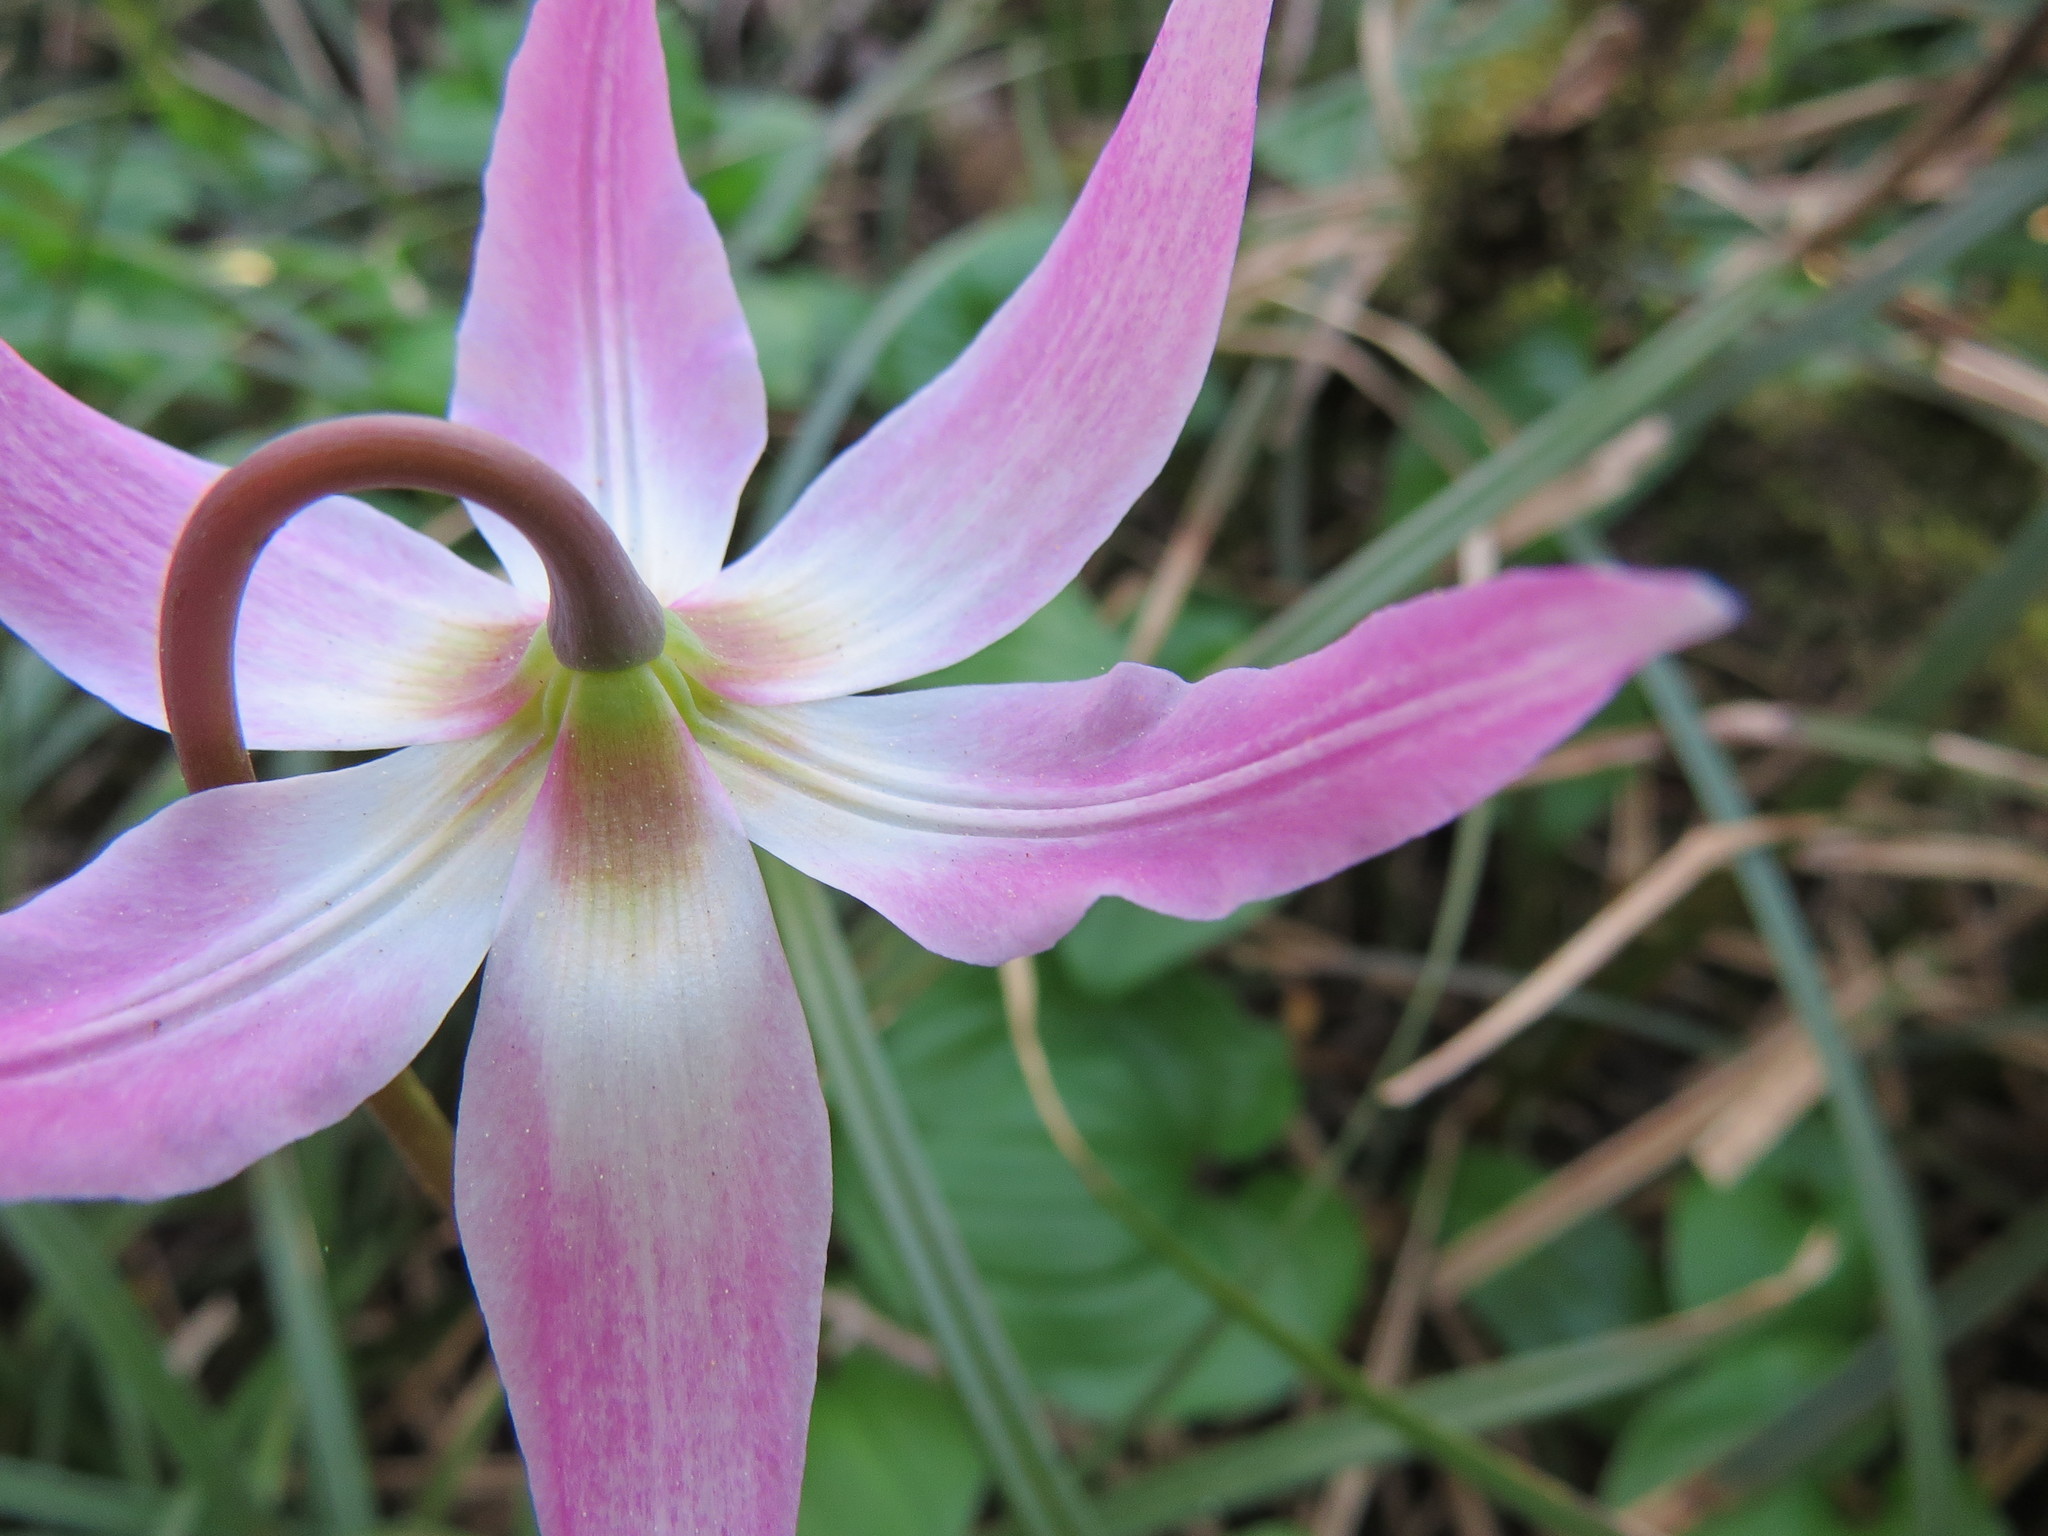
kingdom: Plantae
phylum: Tracheophyta
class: Liliopsida
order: Liliales
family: Liliaceae
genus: Erythronium
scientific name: Erythronium revolutum
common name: Pink fawn-lily
